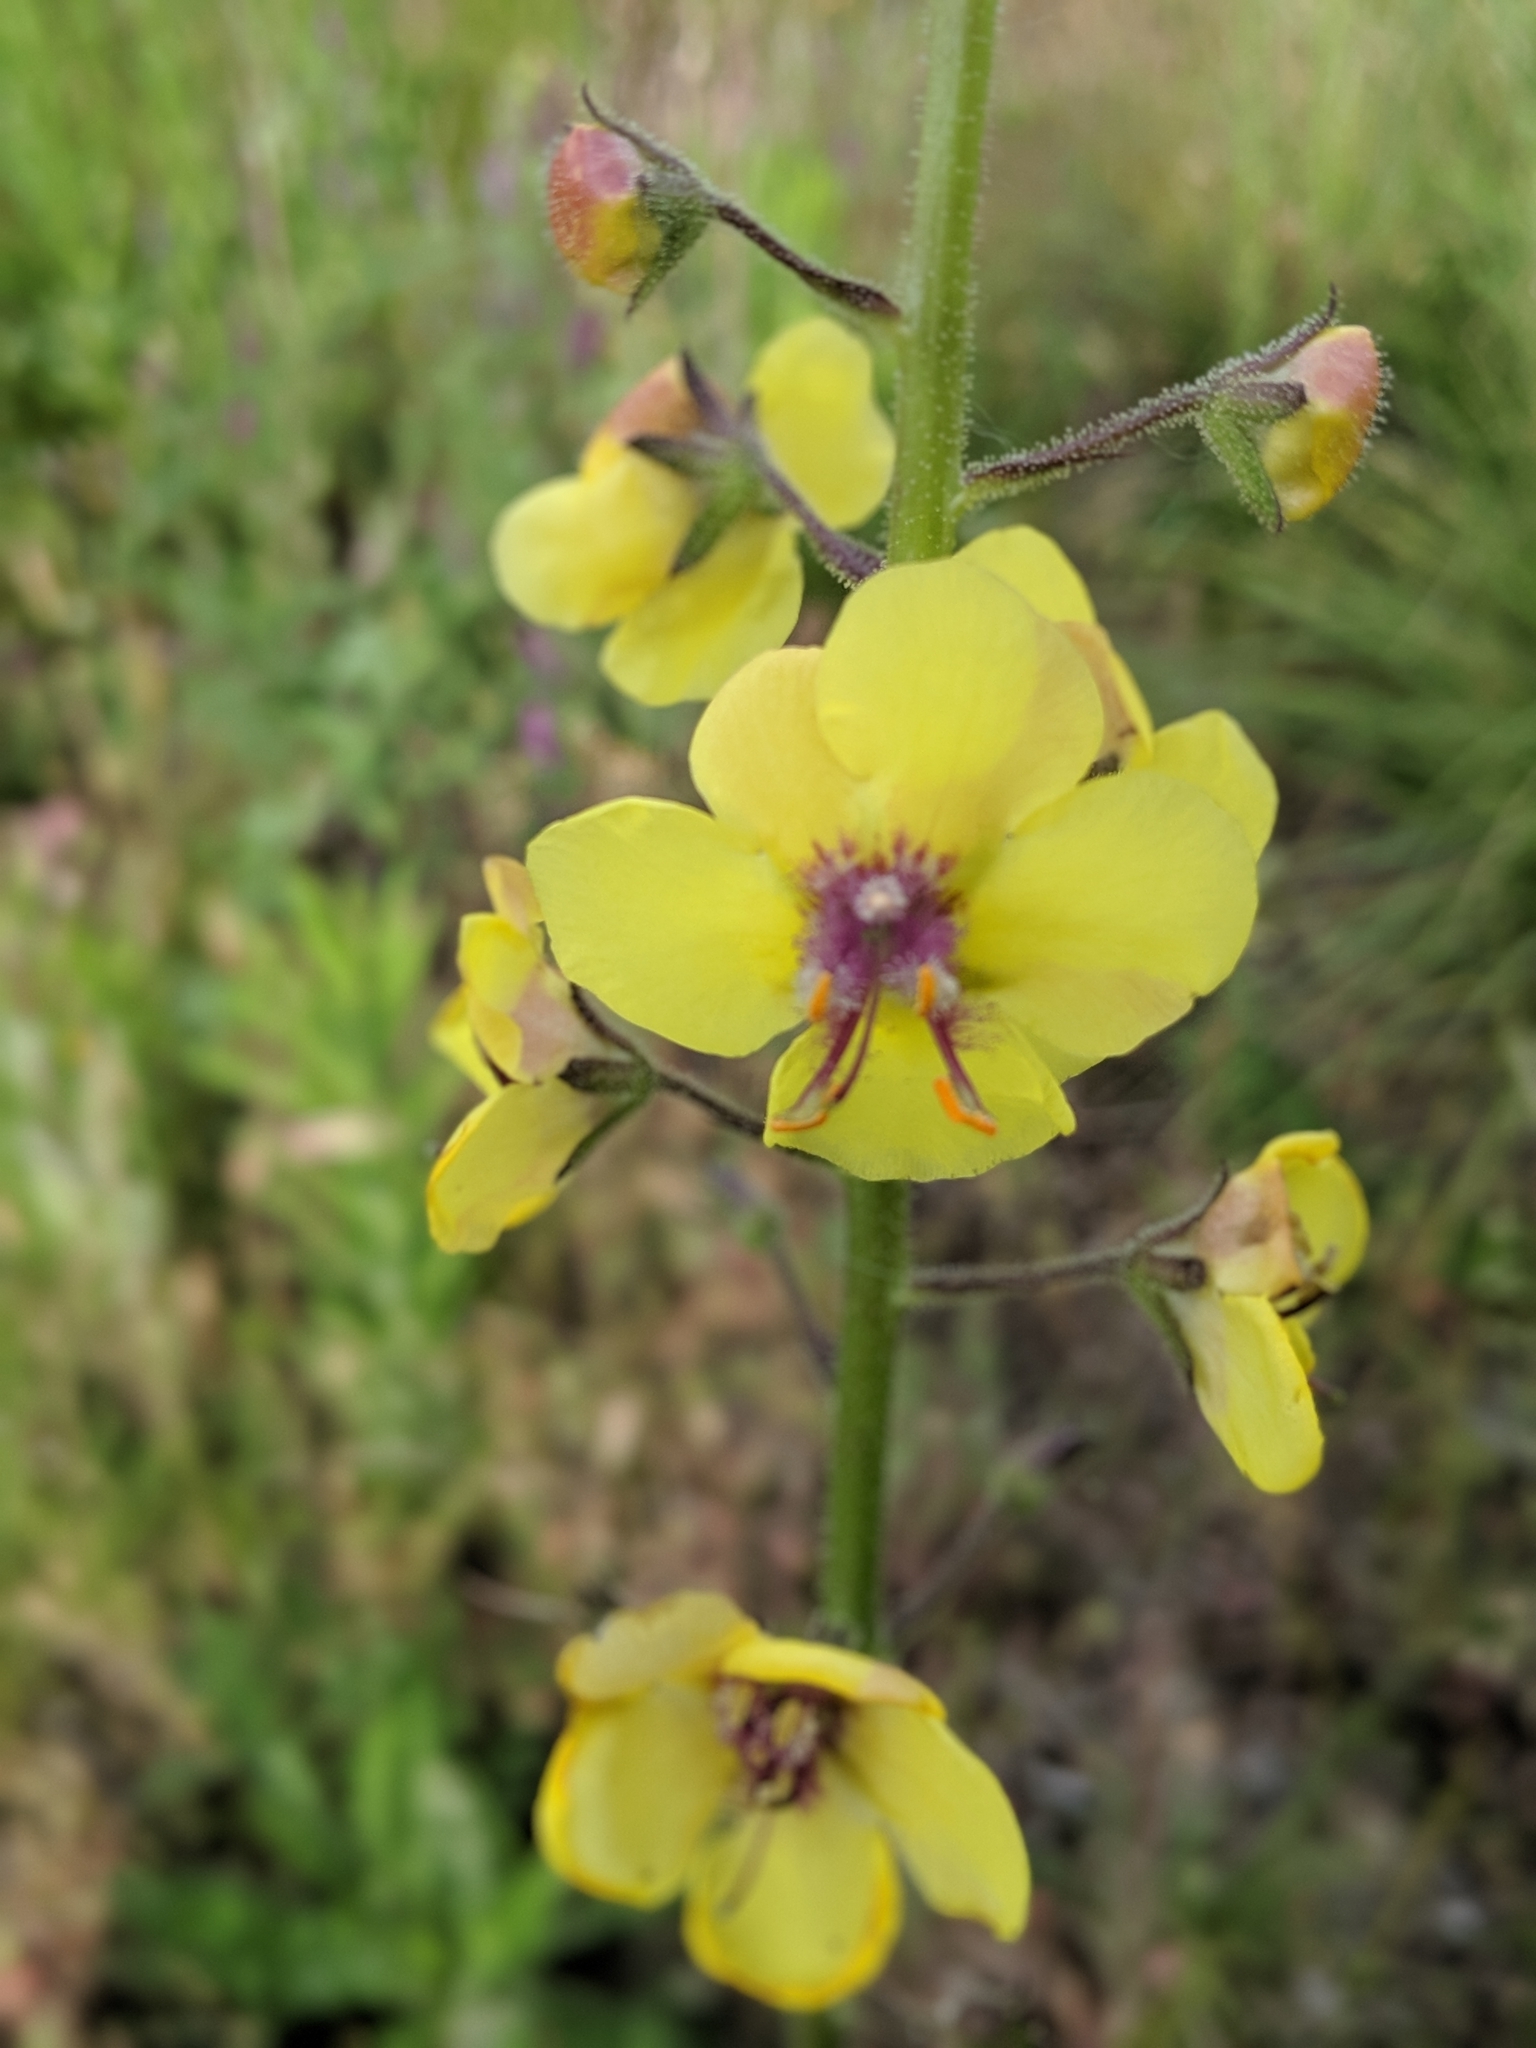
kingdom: Plantae
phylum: Tracheophyta
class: Magnoliopsida
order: Lamiales
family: Scrophulariaceae
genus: Verbascum
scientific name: Verbascum blattaria
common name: Moth mullein
